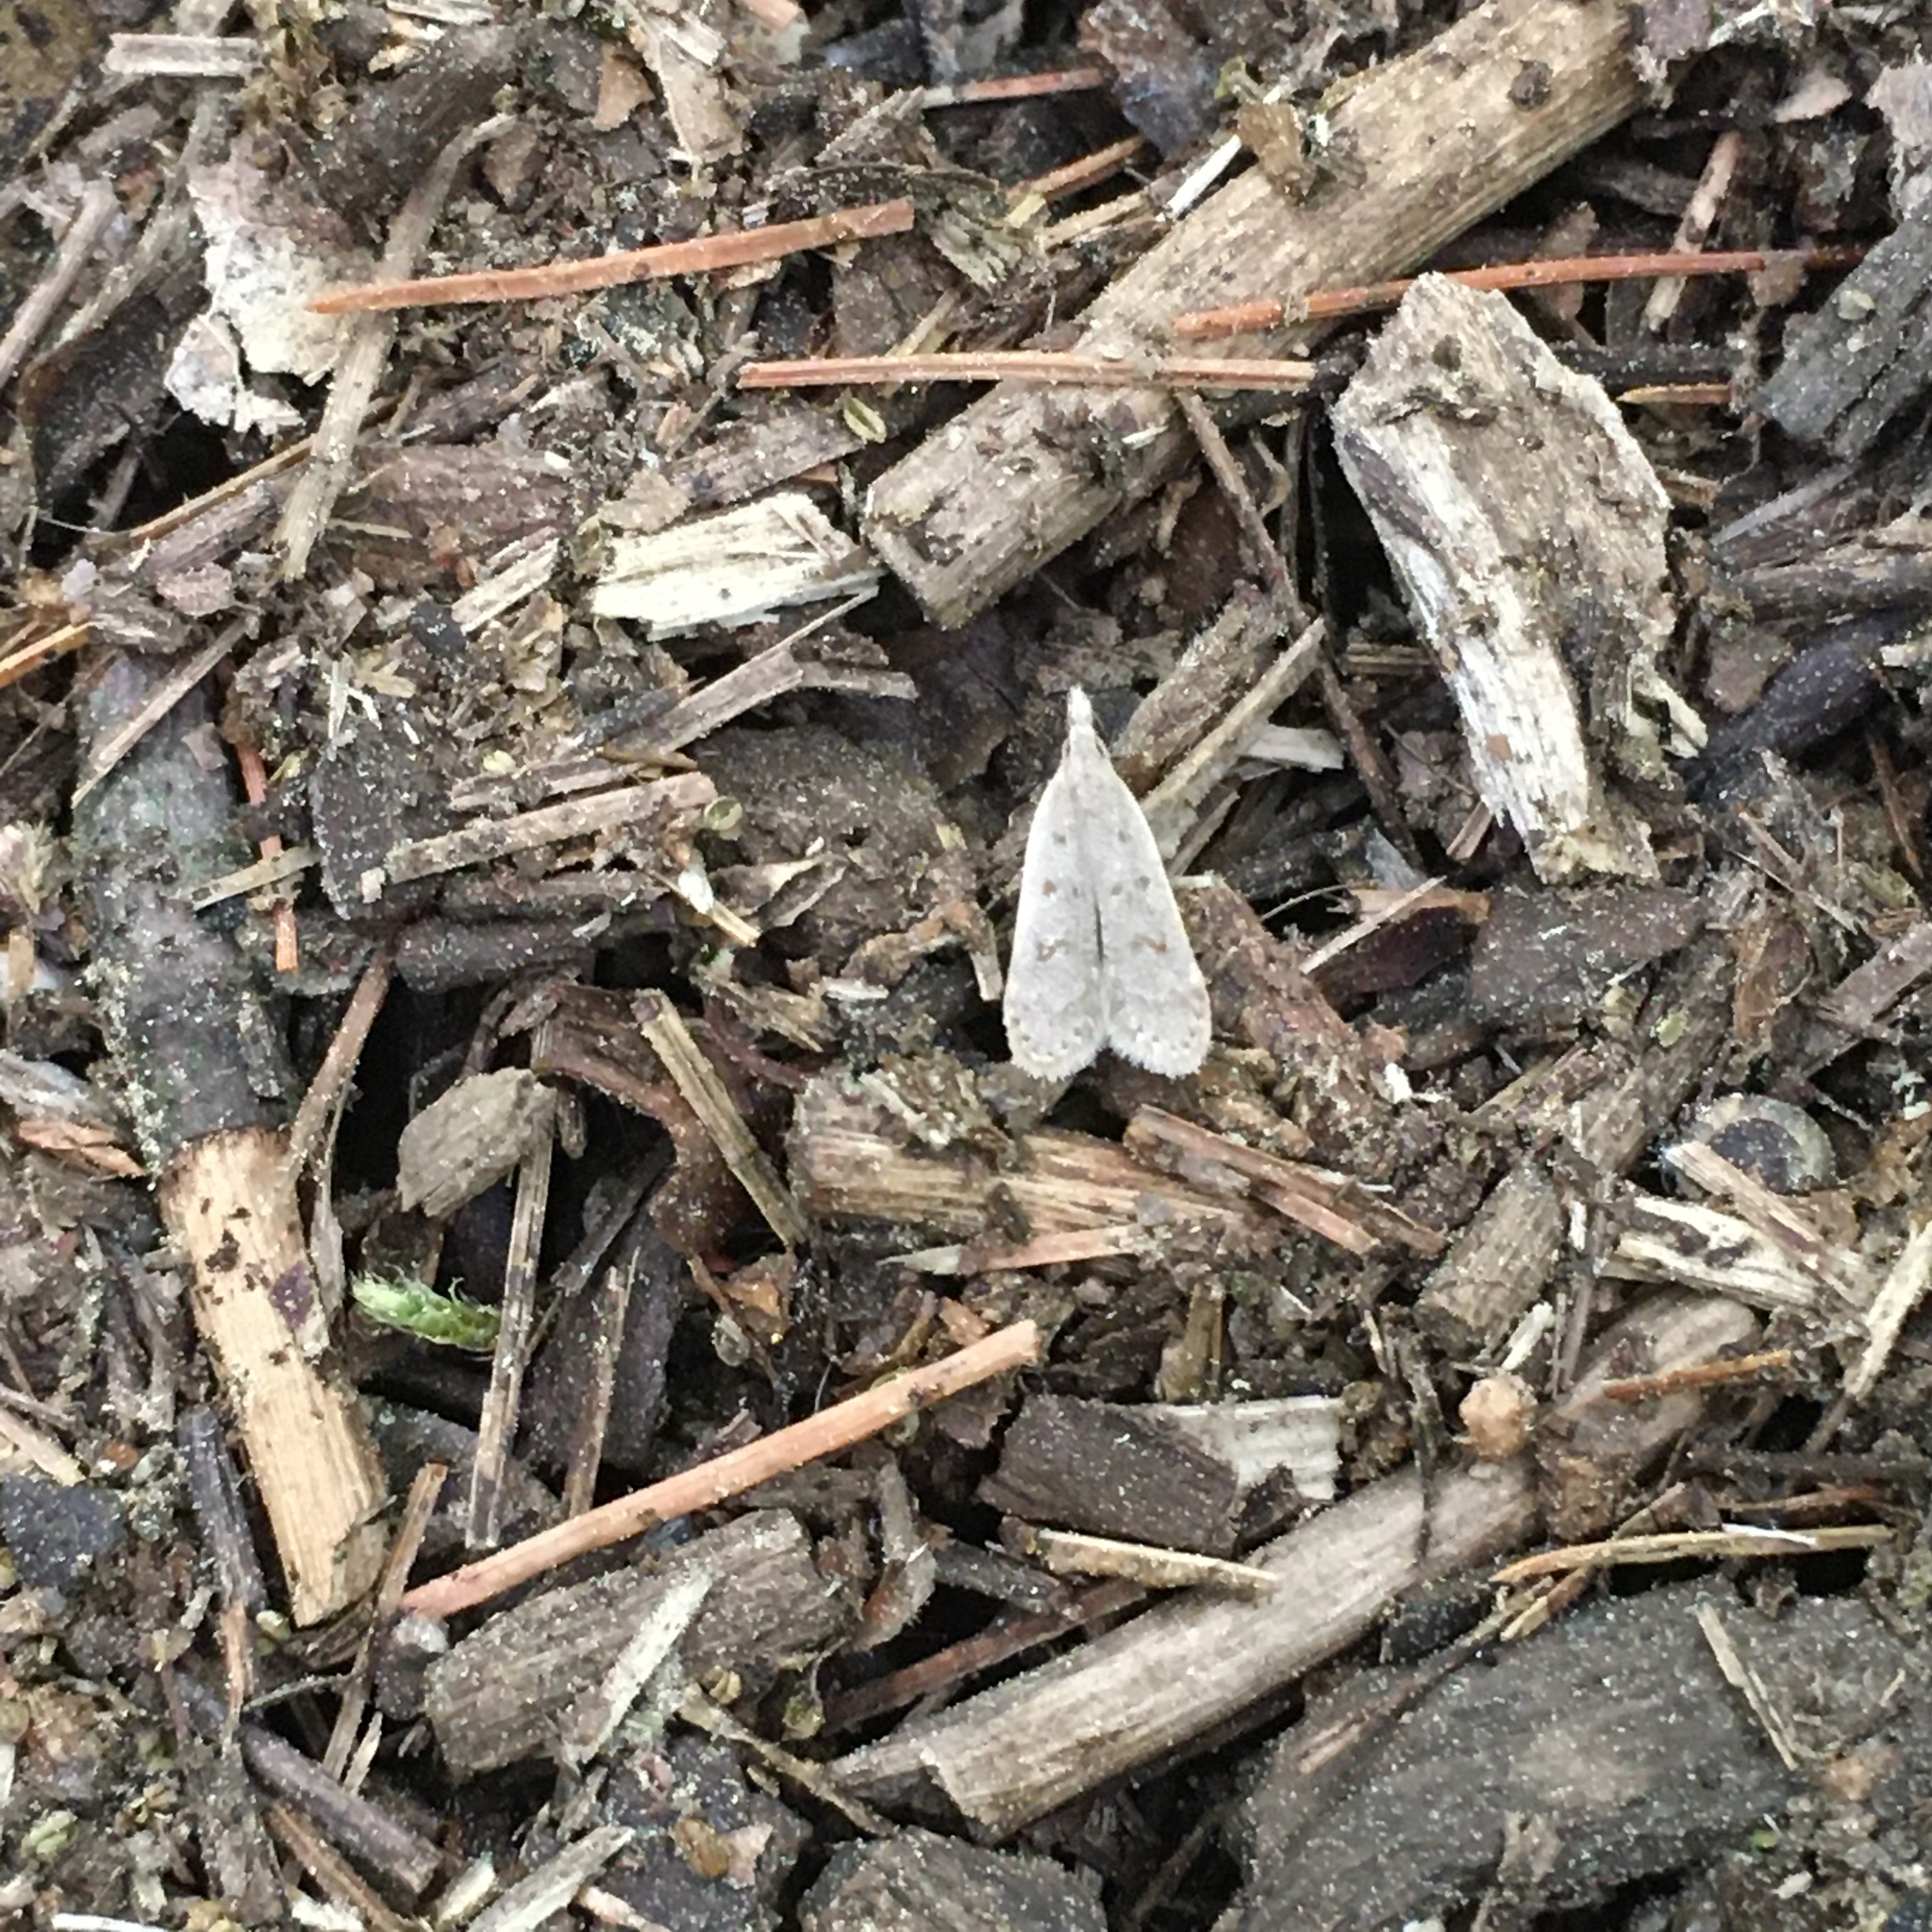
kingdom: Animalia
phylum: Arthropoda
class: Insecta
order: Lepidoptera
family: Gelechiidae
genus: Dichomeris
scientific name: Dichomeris punctidiscellus
